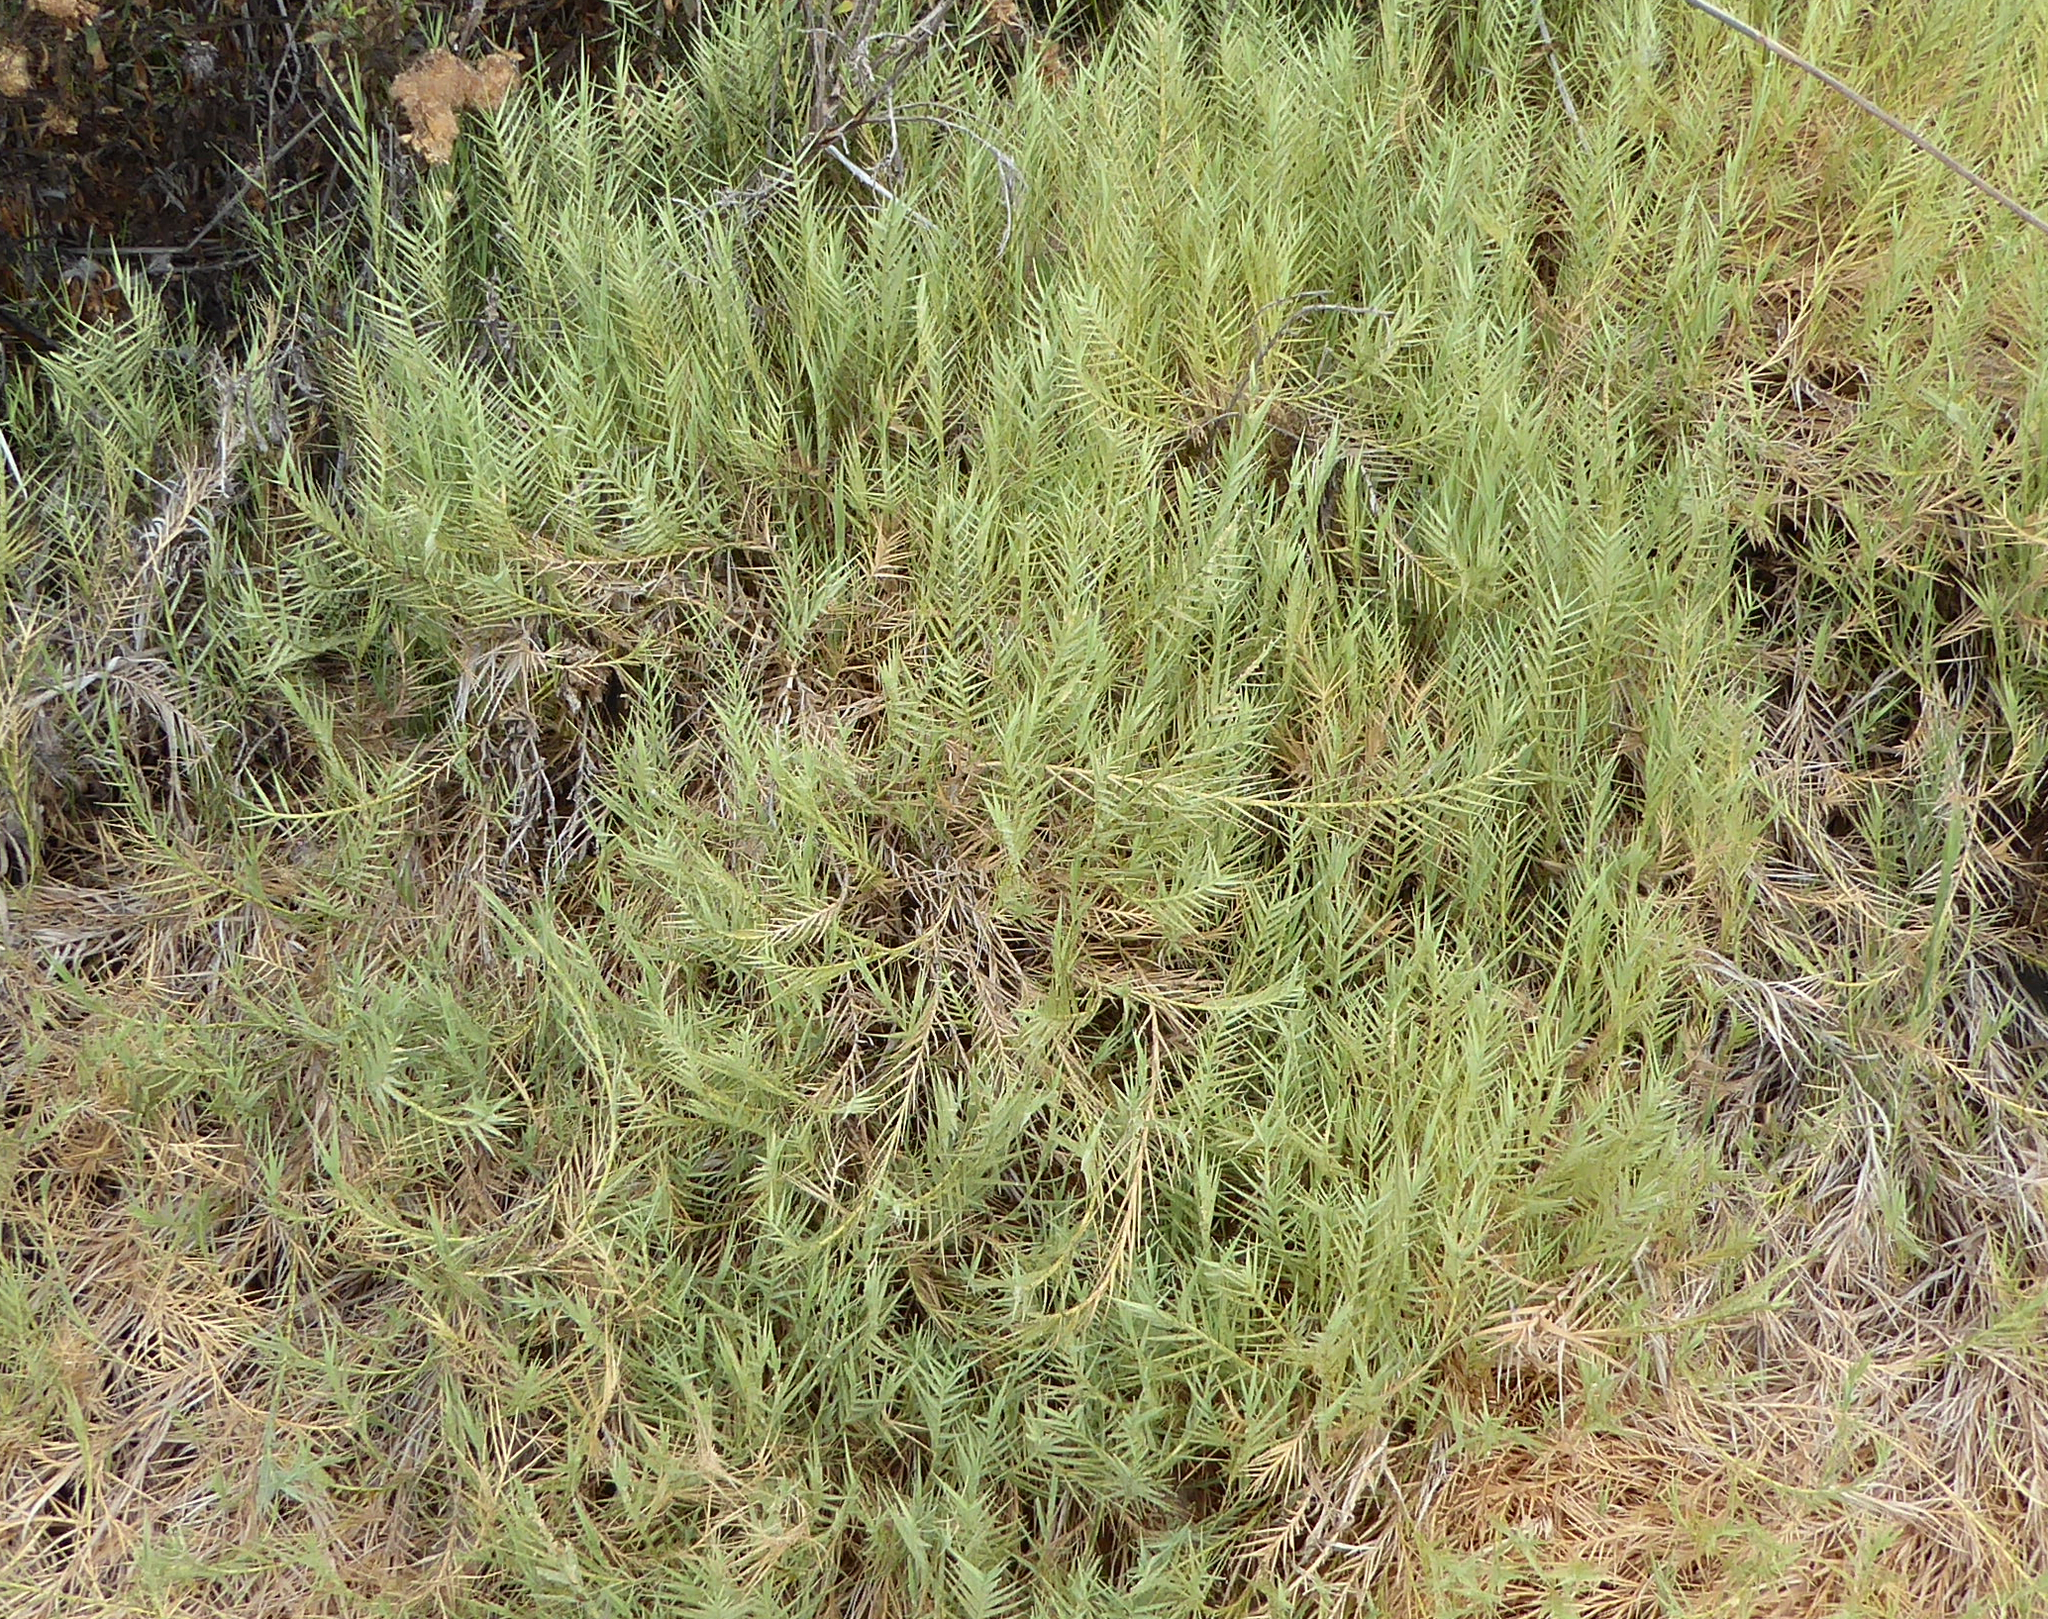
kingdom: Plantae
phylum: Tracheophyta
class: Liliopsida
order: Poales
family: Poaceae
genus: Distichlis
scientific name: Distichlis spicata
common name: Saltgrass
